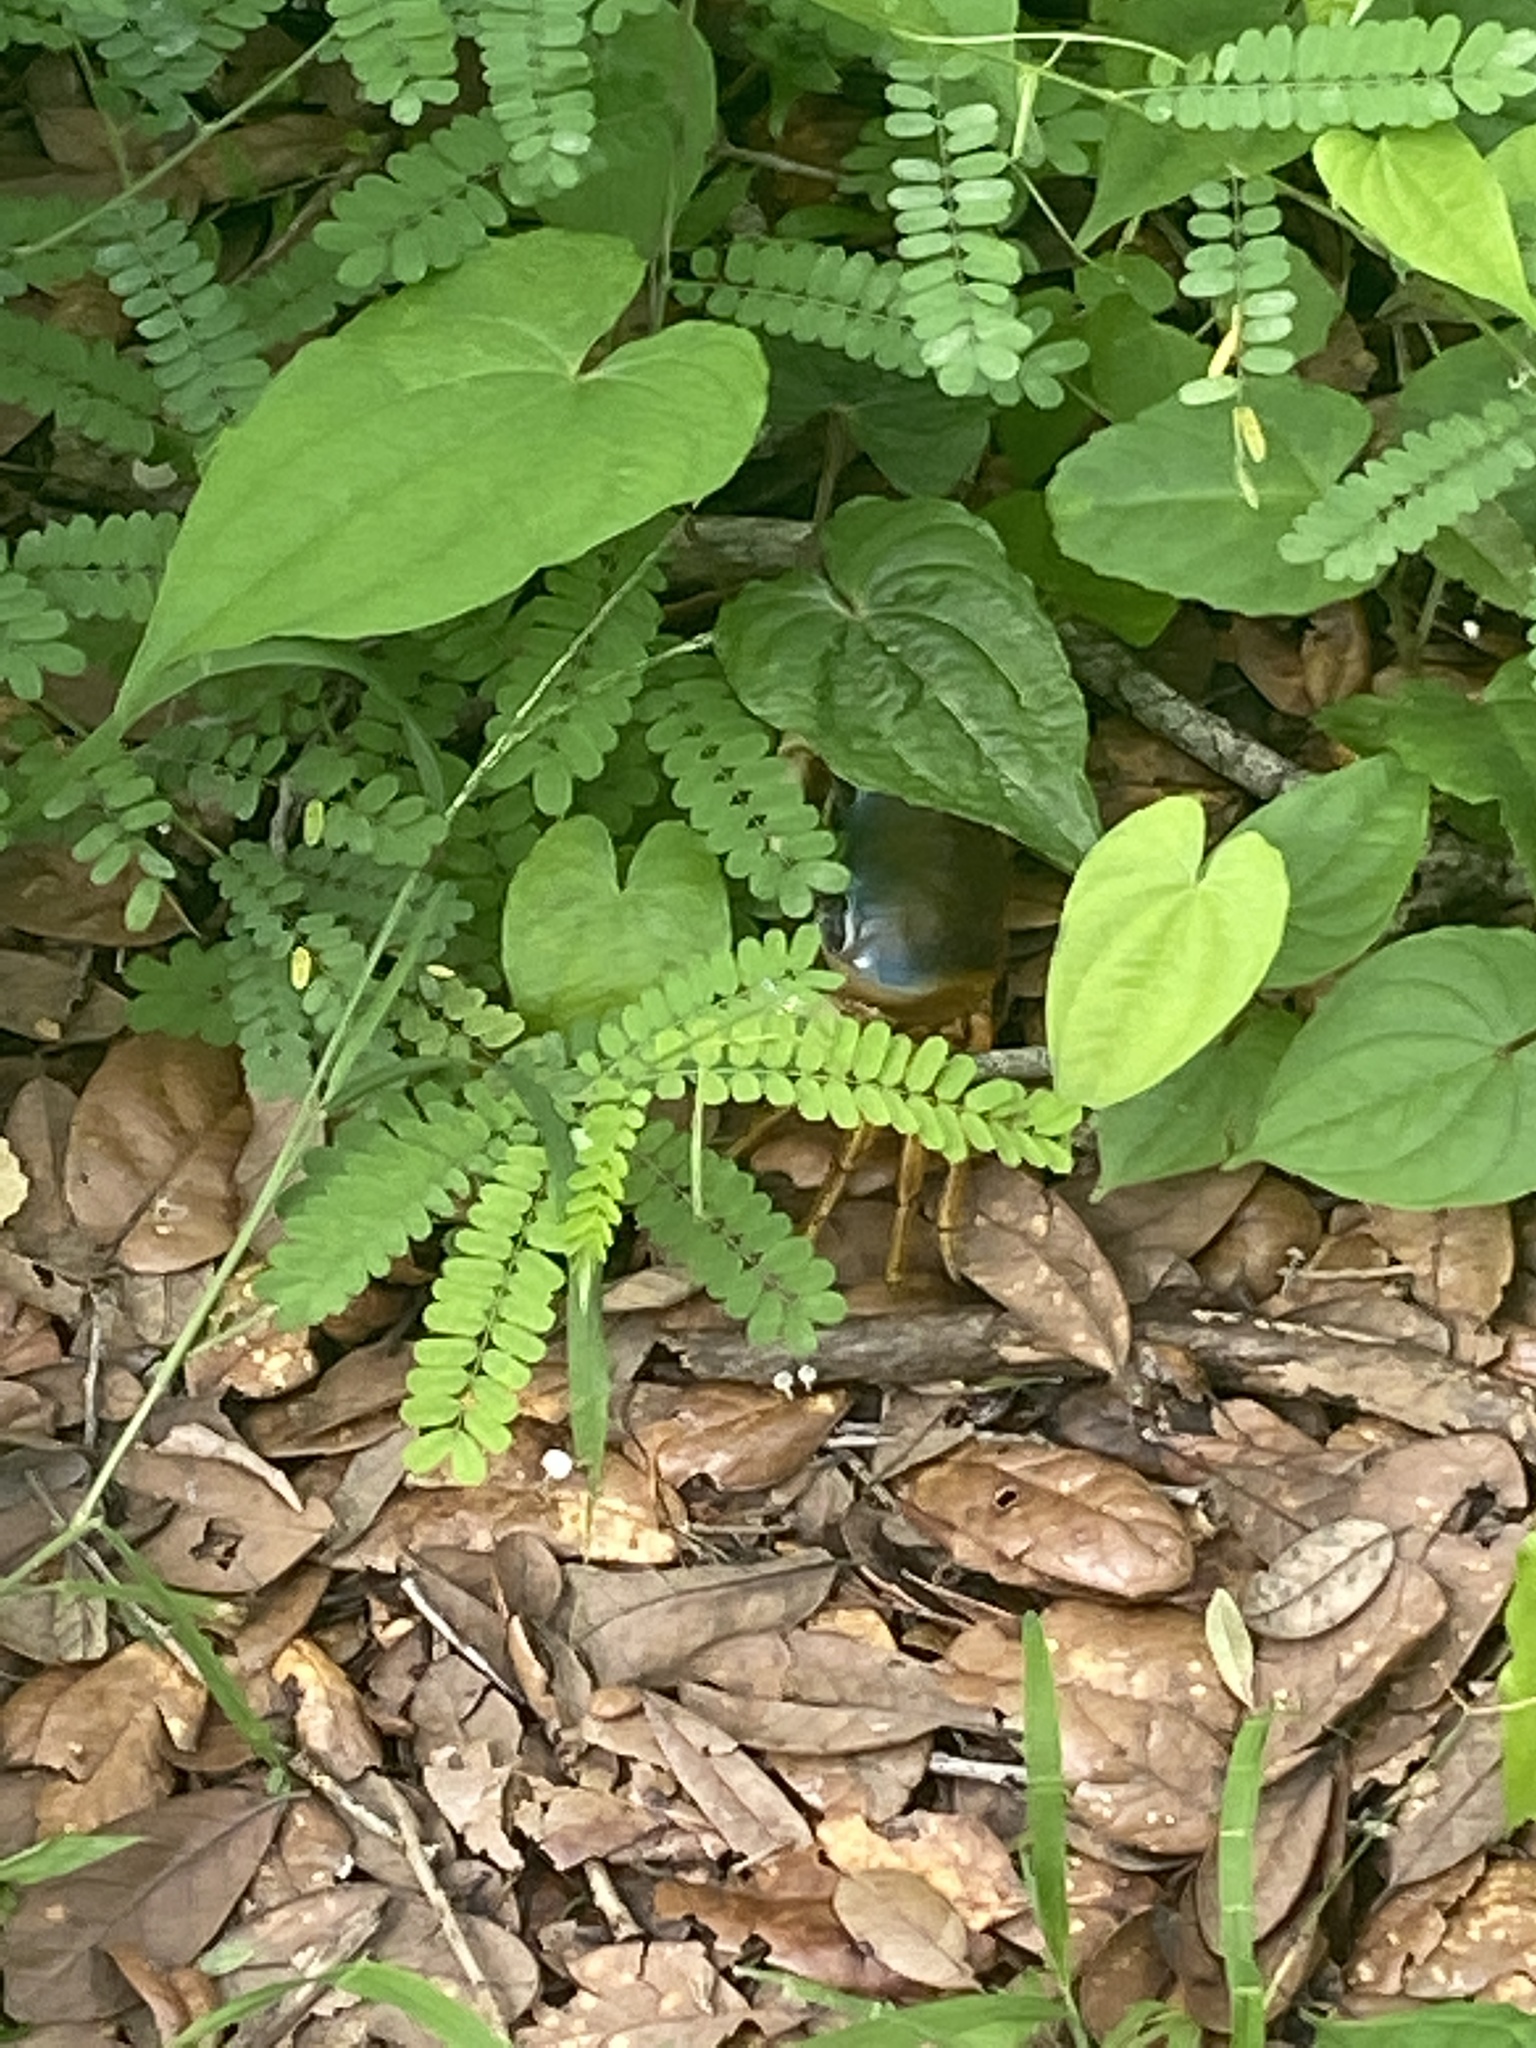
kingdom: Animalia
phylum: Arthropoda
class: Malacostraca
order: Decapoda
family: Gecarcinidae
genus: Cardisoma
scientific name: Cardisoma guanhumi
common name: Great land crab
